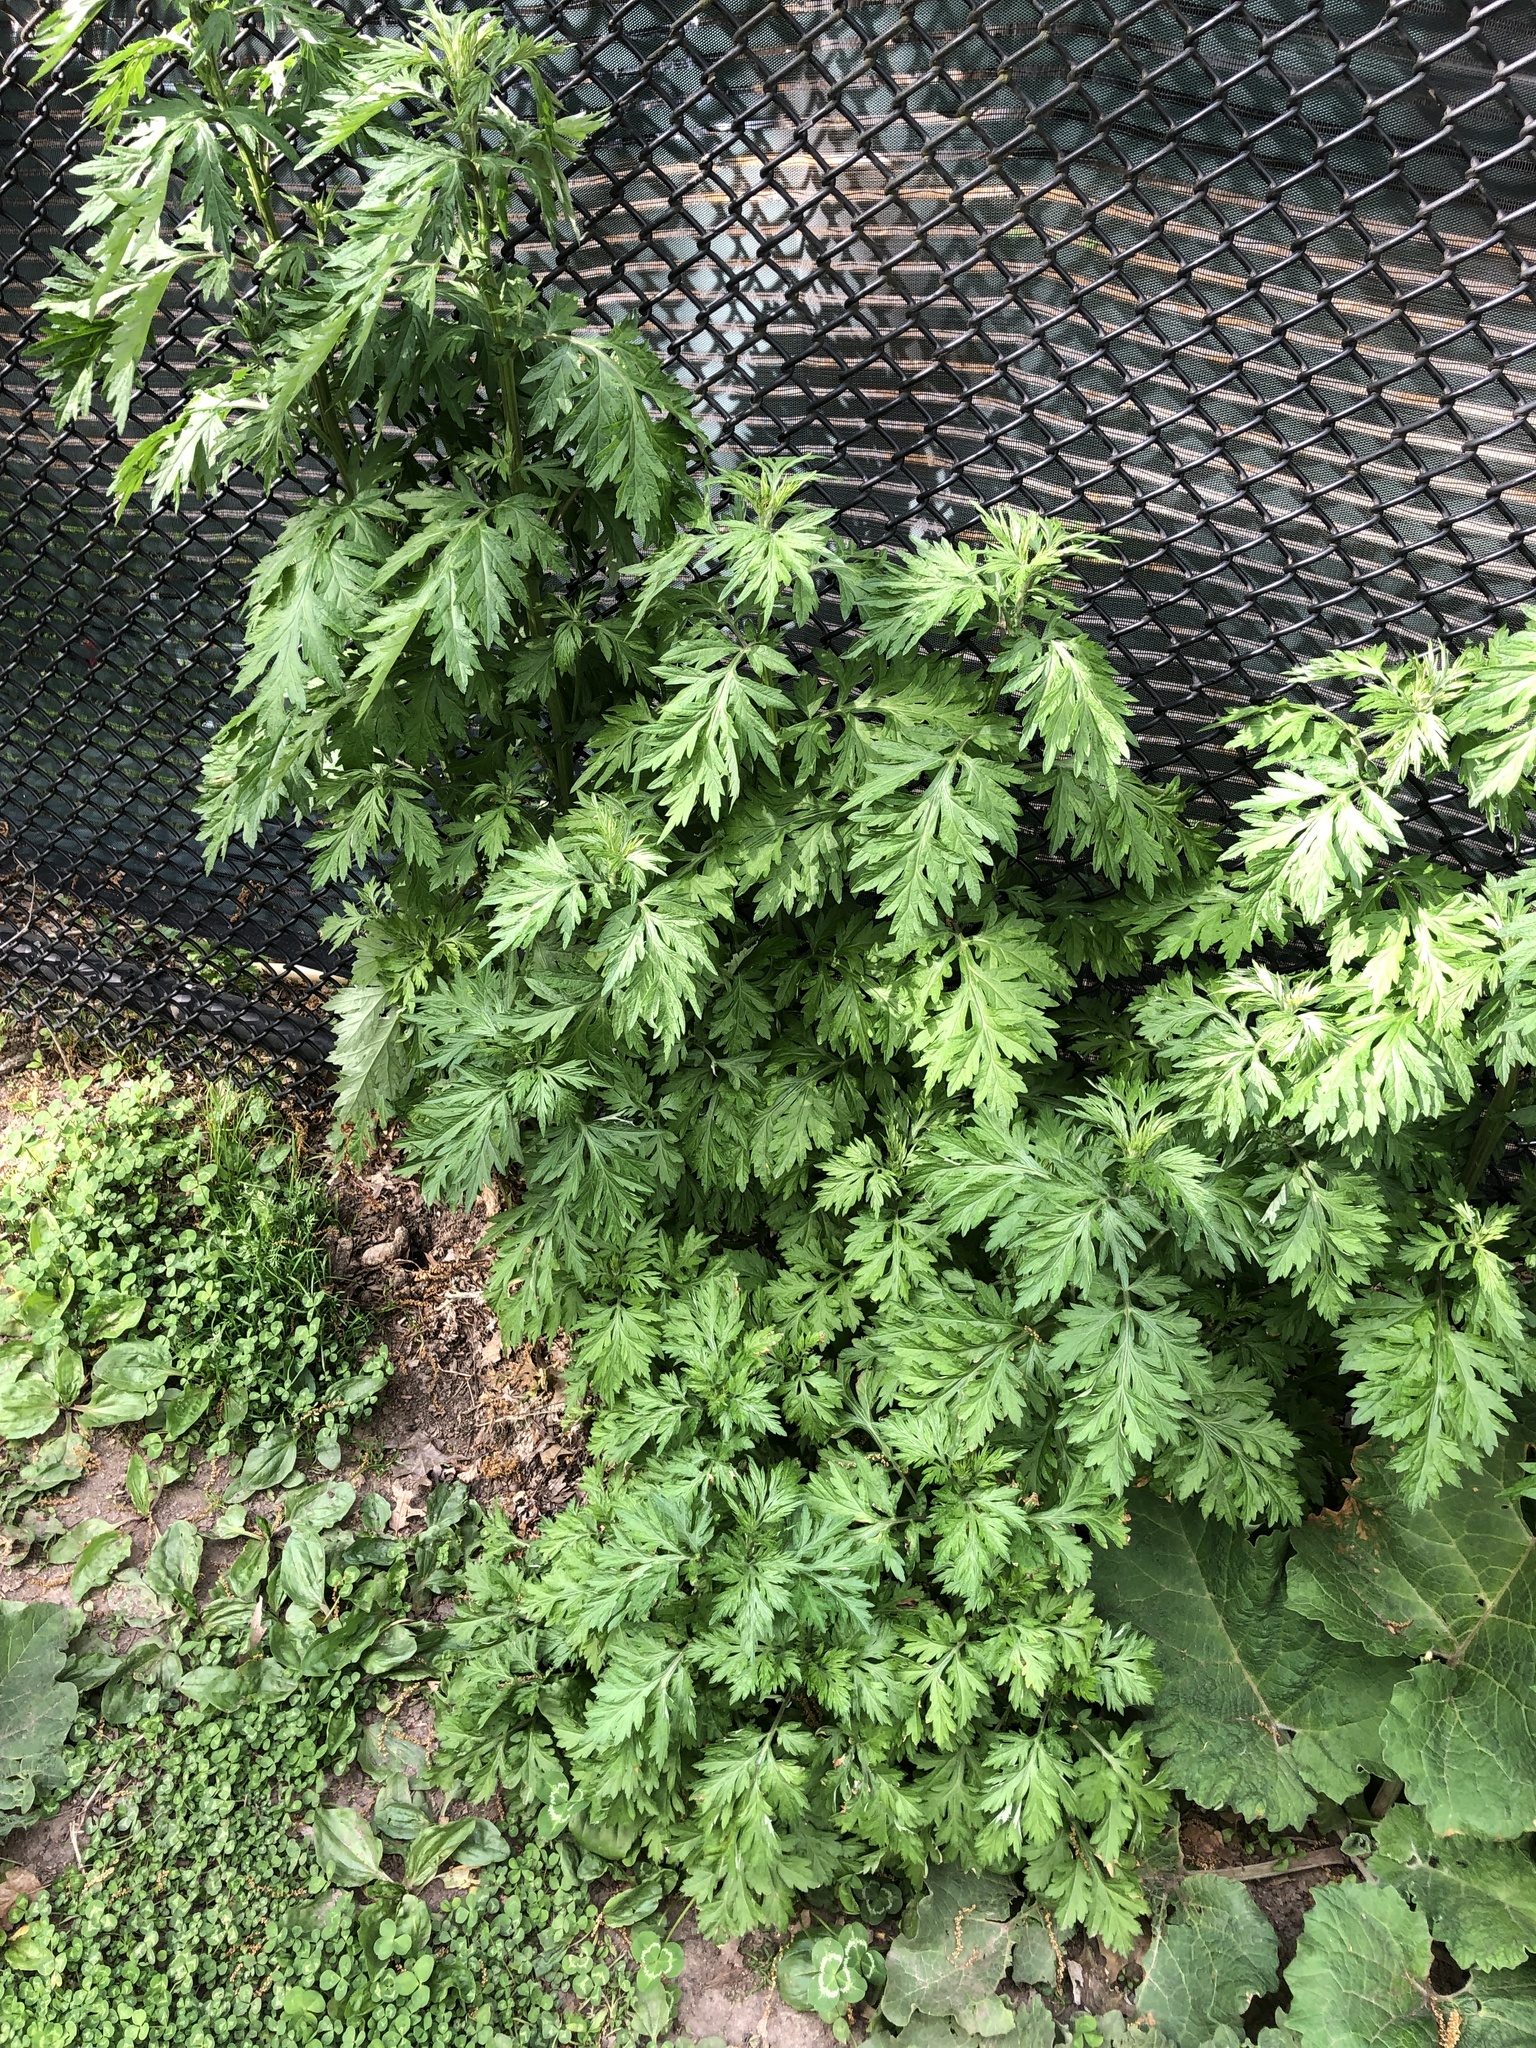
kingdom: Plantae
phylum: Tracheophyta
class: Magnoliopsida
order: Asterales
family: Asteraceae
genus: Artemisia
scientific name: Artemisia vulgaris
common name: Mugwort
